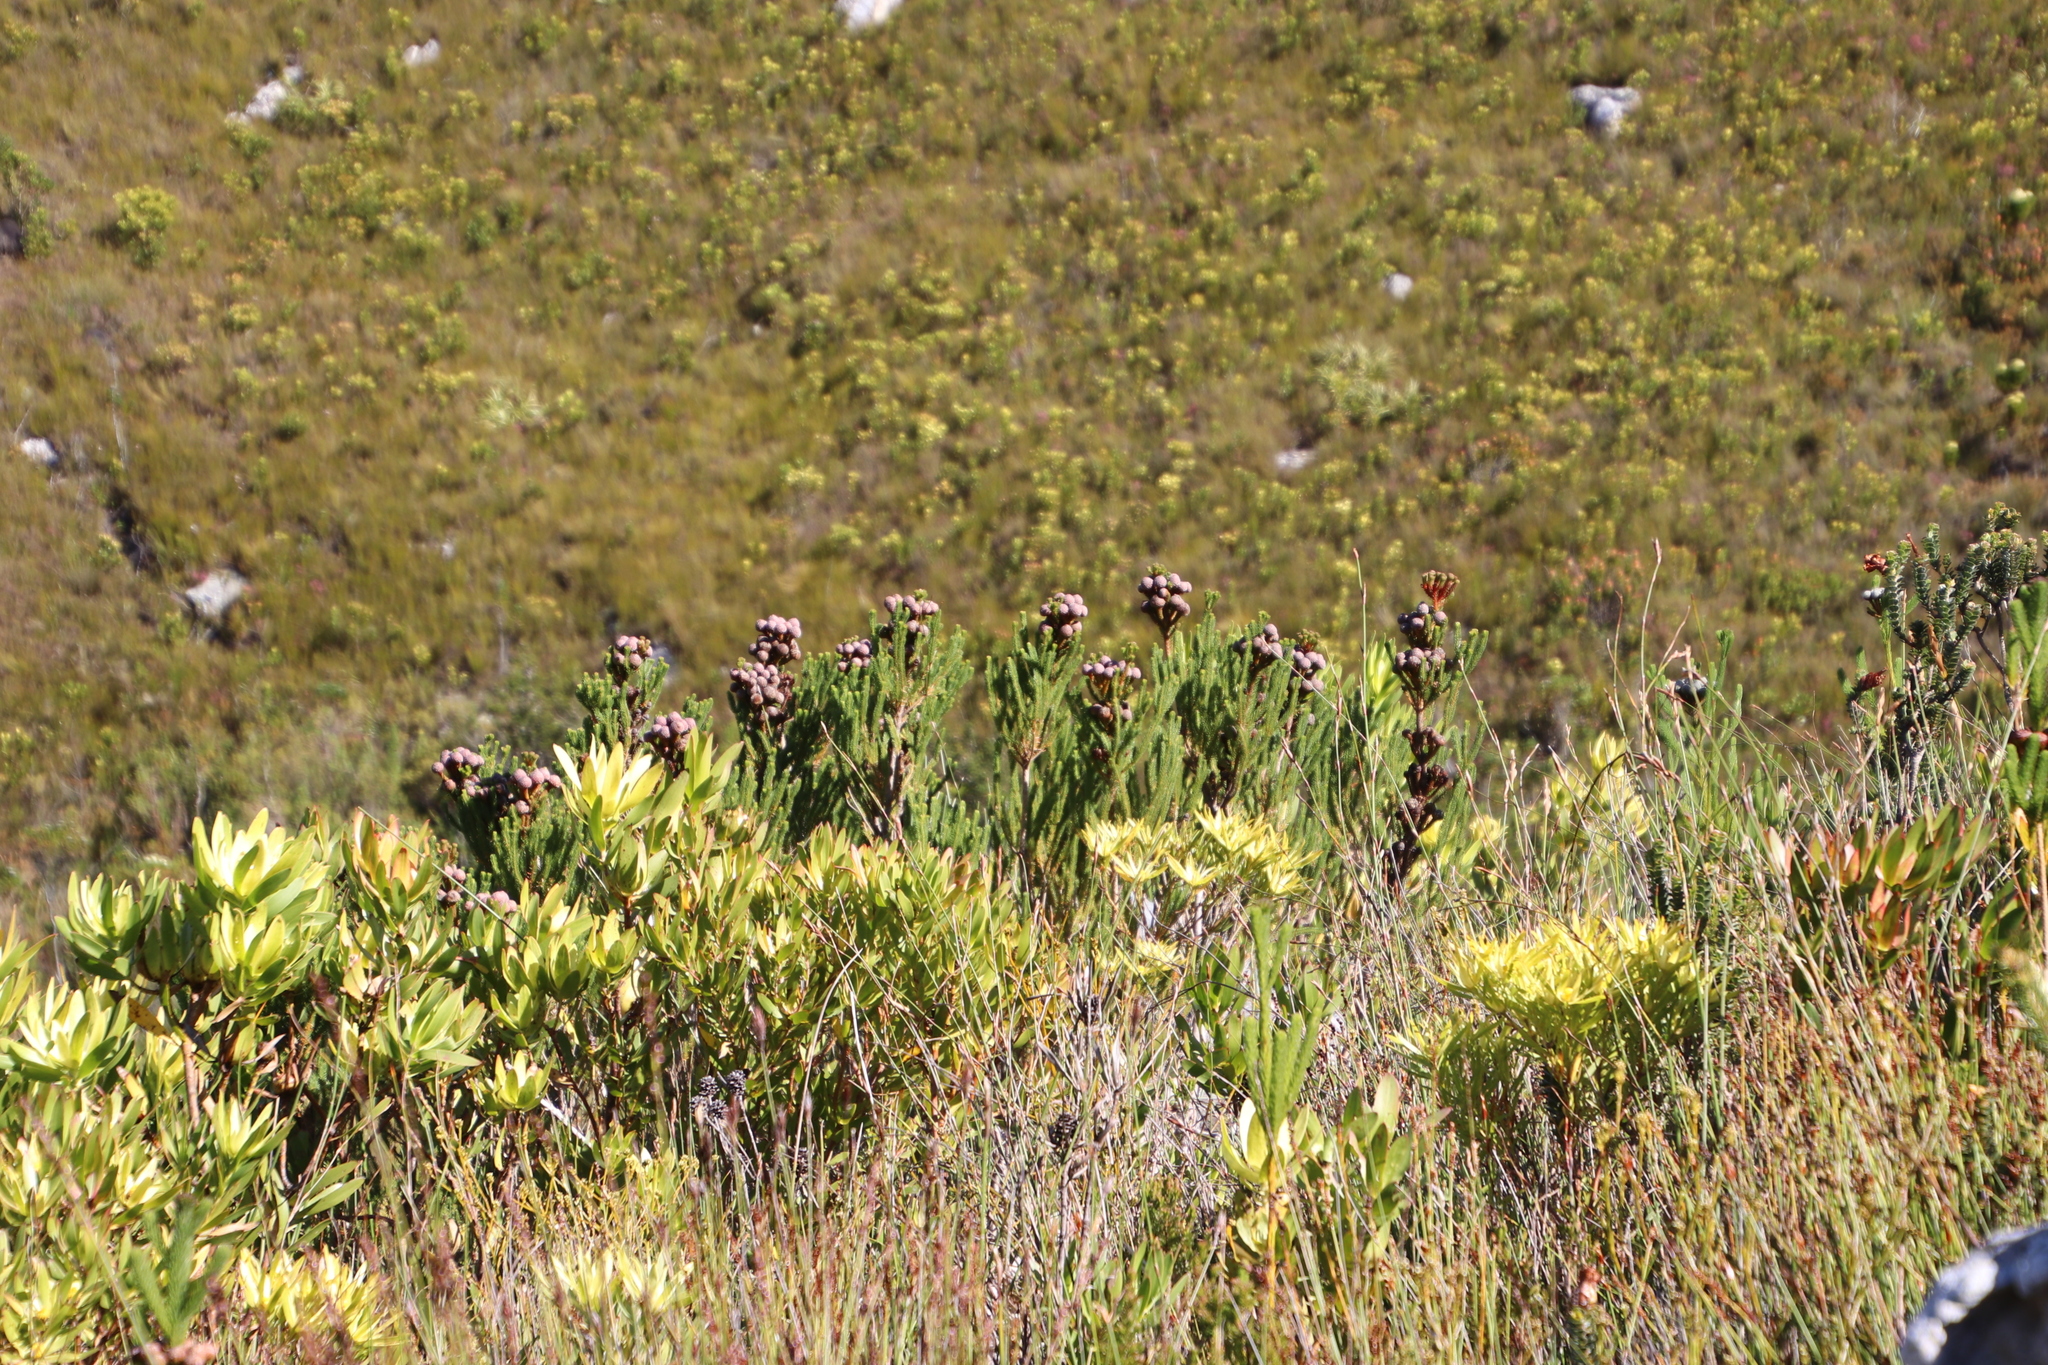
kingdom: Plantae
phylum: Tracheophyta
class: Magnoliopsida
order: Proteales
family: Proteaceae
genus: Leucadendron
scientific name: Leucadendron xanthoconus
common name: Sickle-leaf conebush
